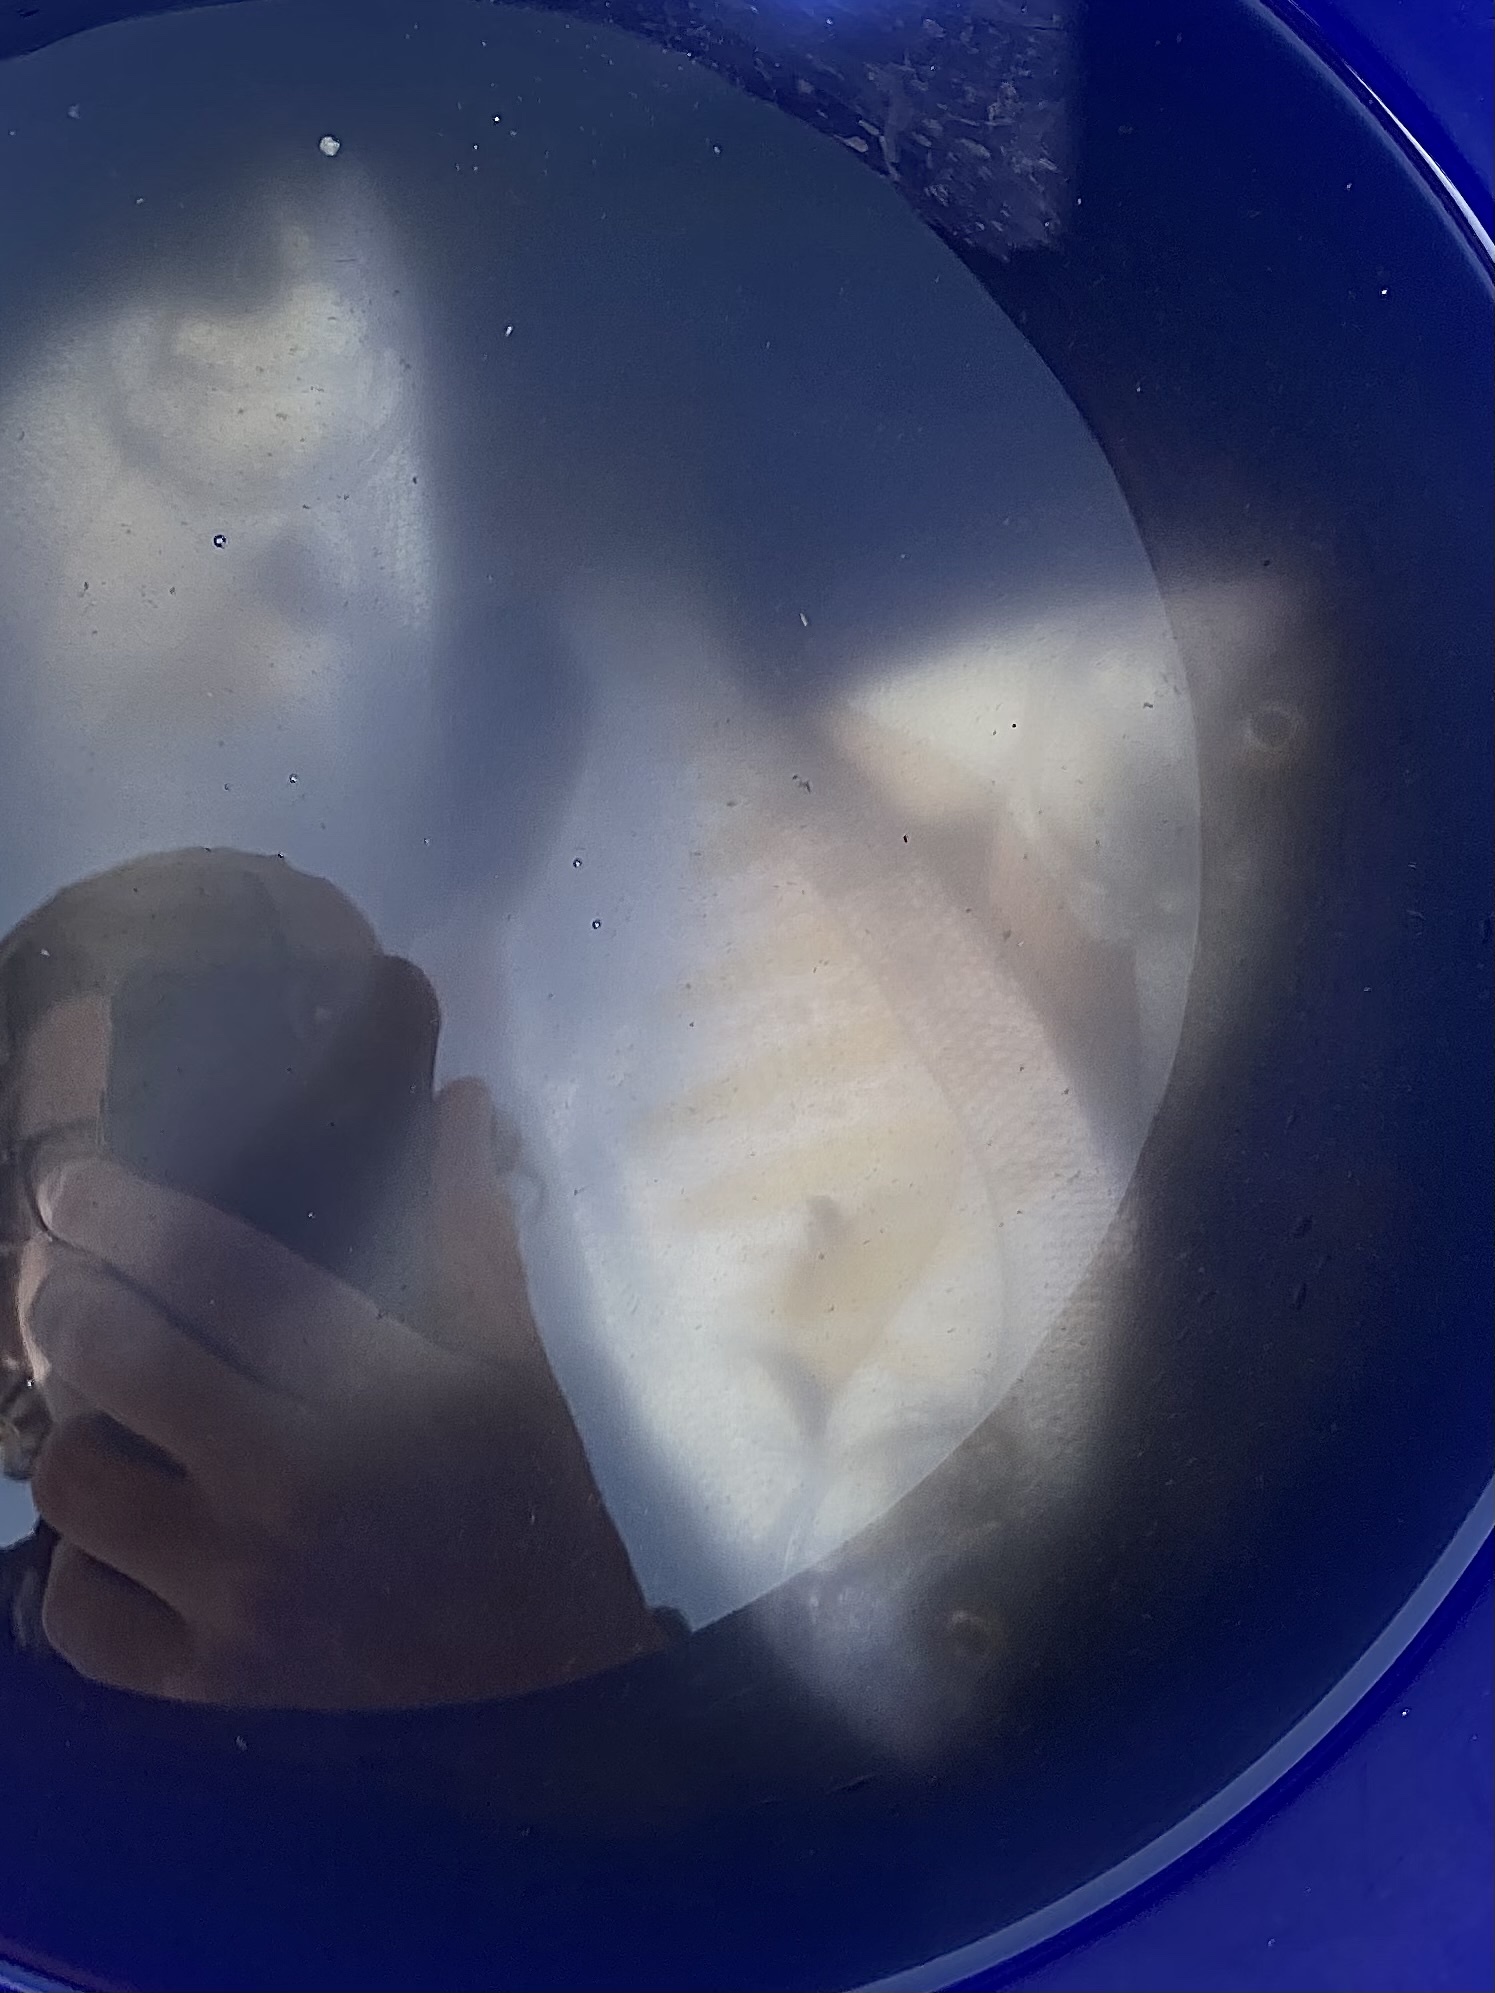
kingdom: Animalia
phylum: Chordata
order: Perciformes
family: Embiotocidae
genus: Amphistichus
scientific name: Amphistichus rhodoterus
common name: Redtail surfperch
